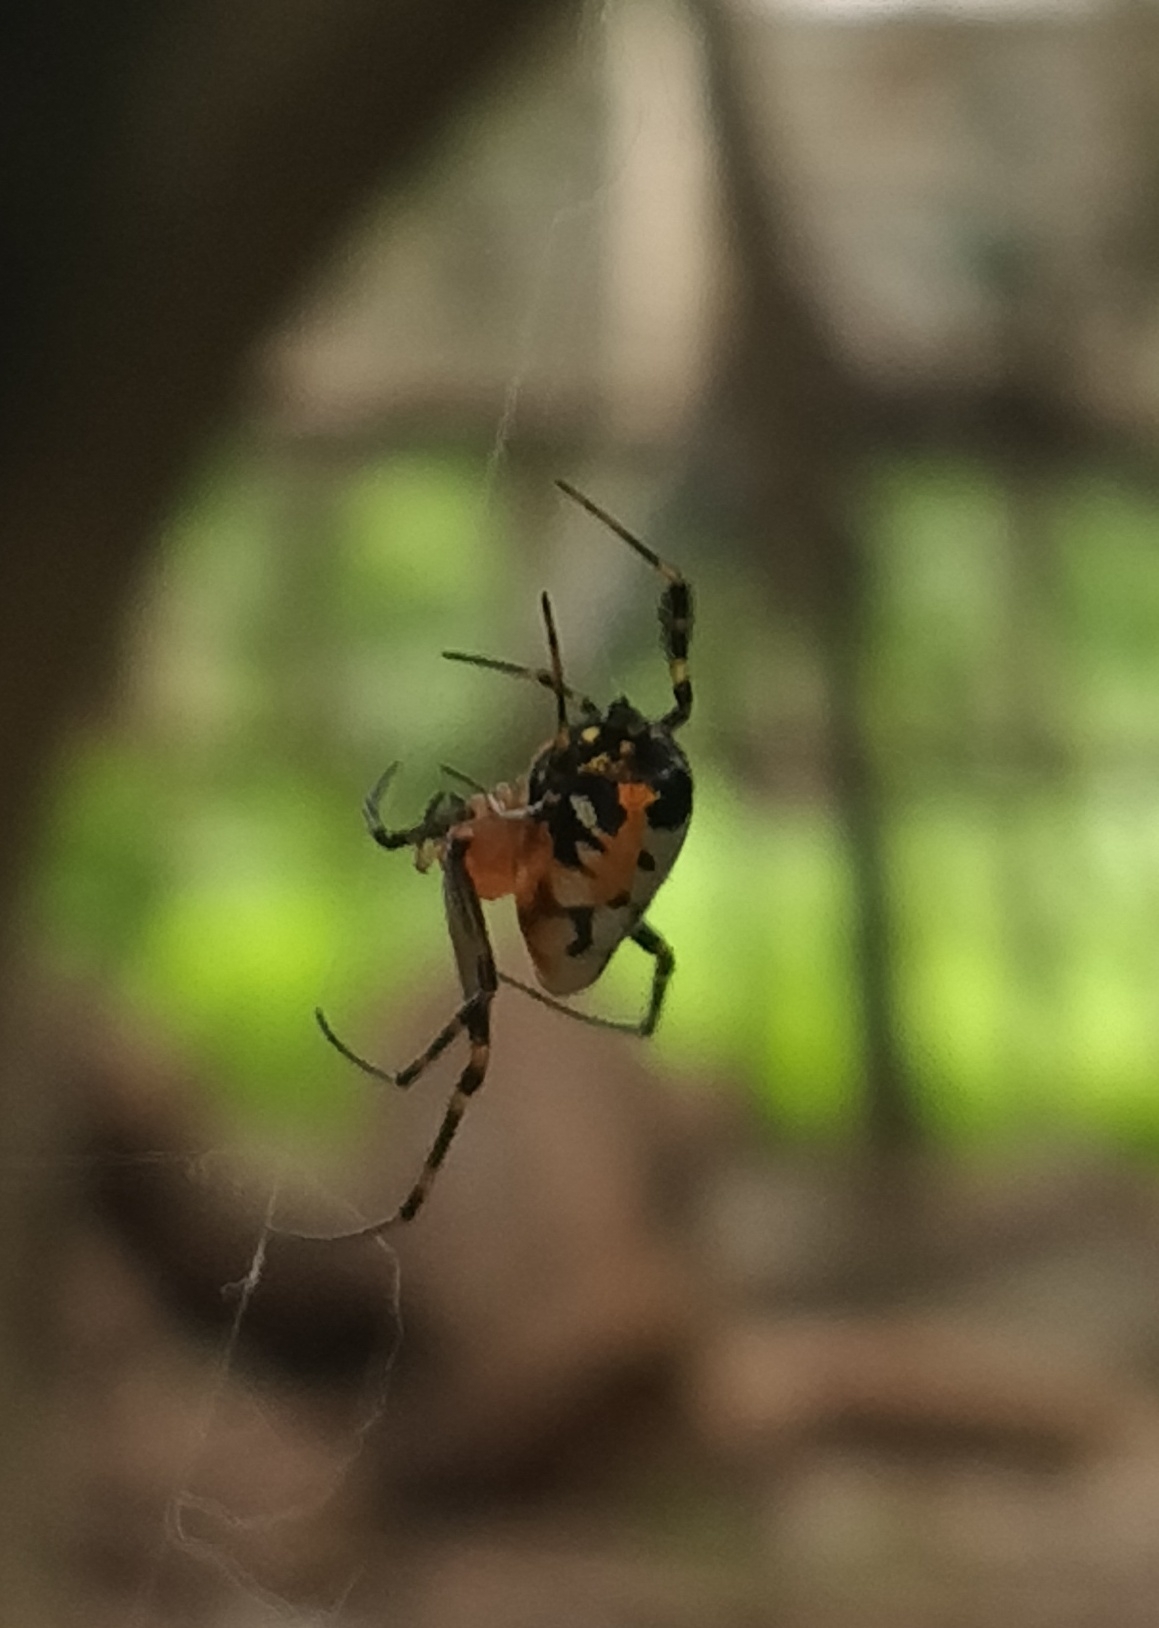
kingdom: Animalia
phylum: Arthropoda
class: Arachnida
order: Araneae
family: Tetragnathidae
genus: Leucauge
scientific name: Leucauge fastigata
